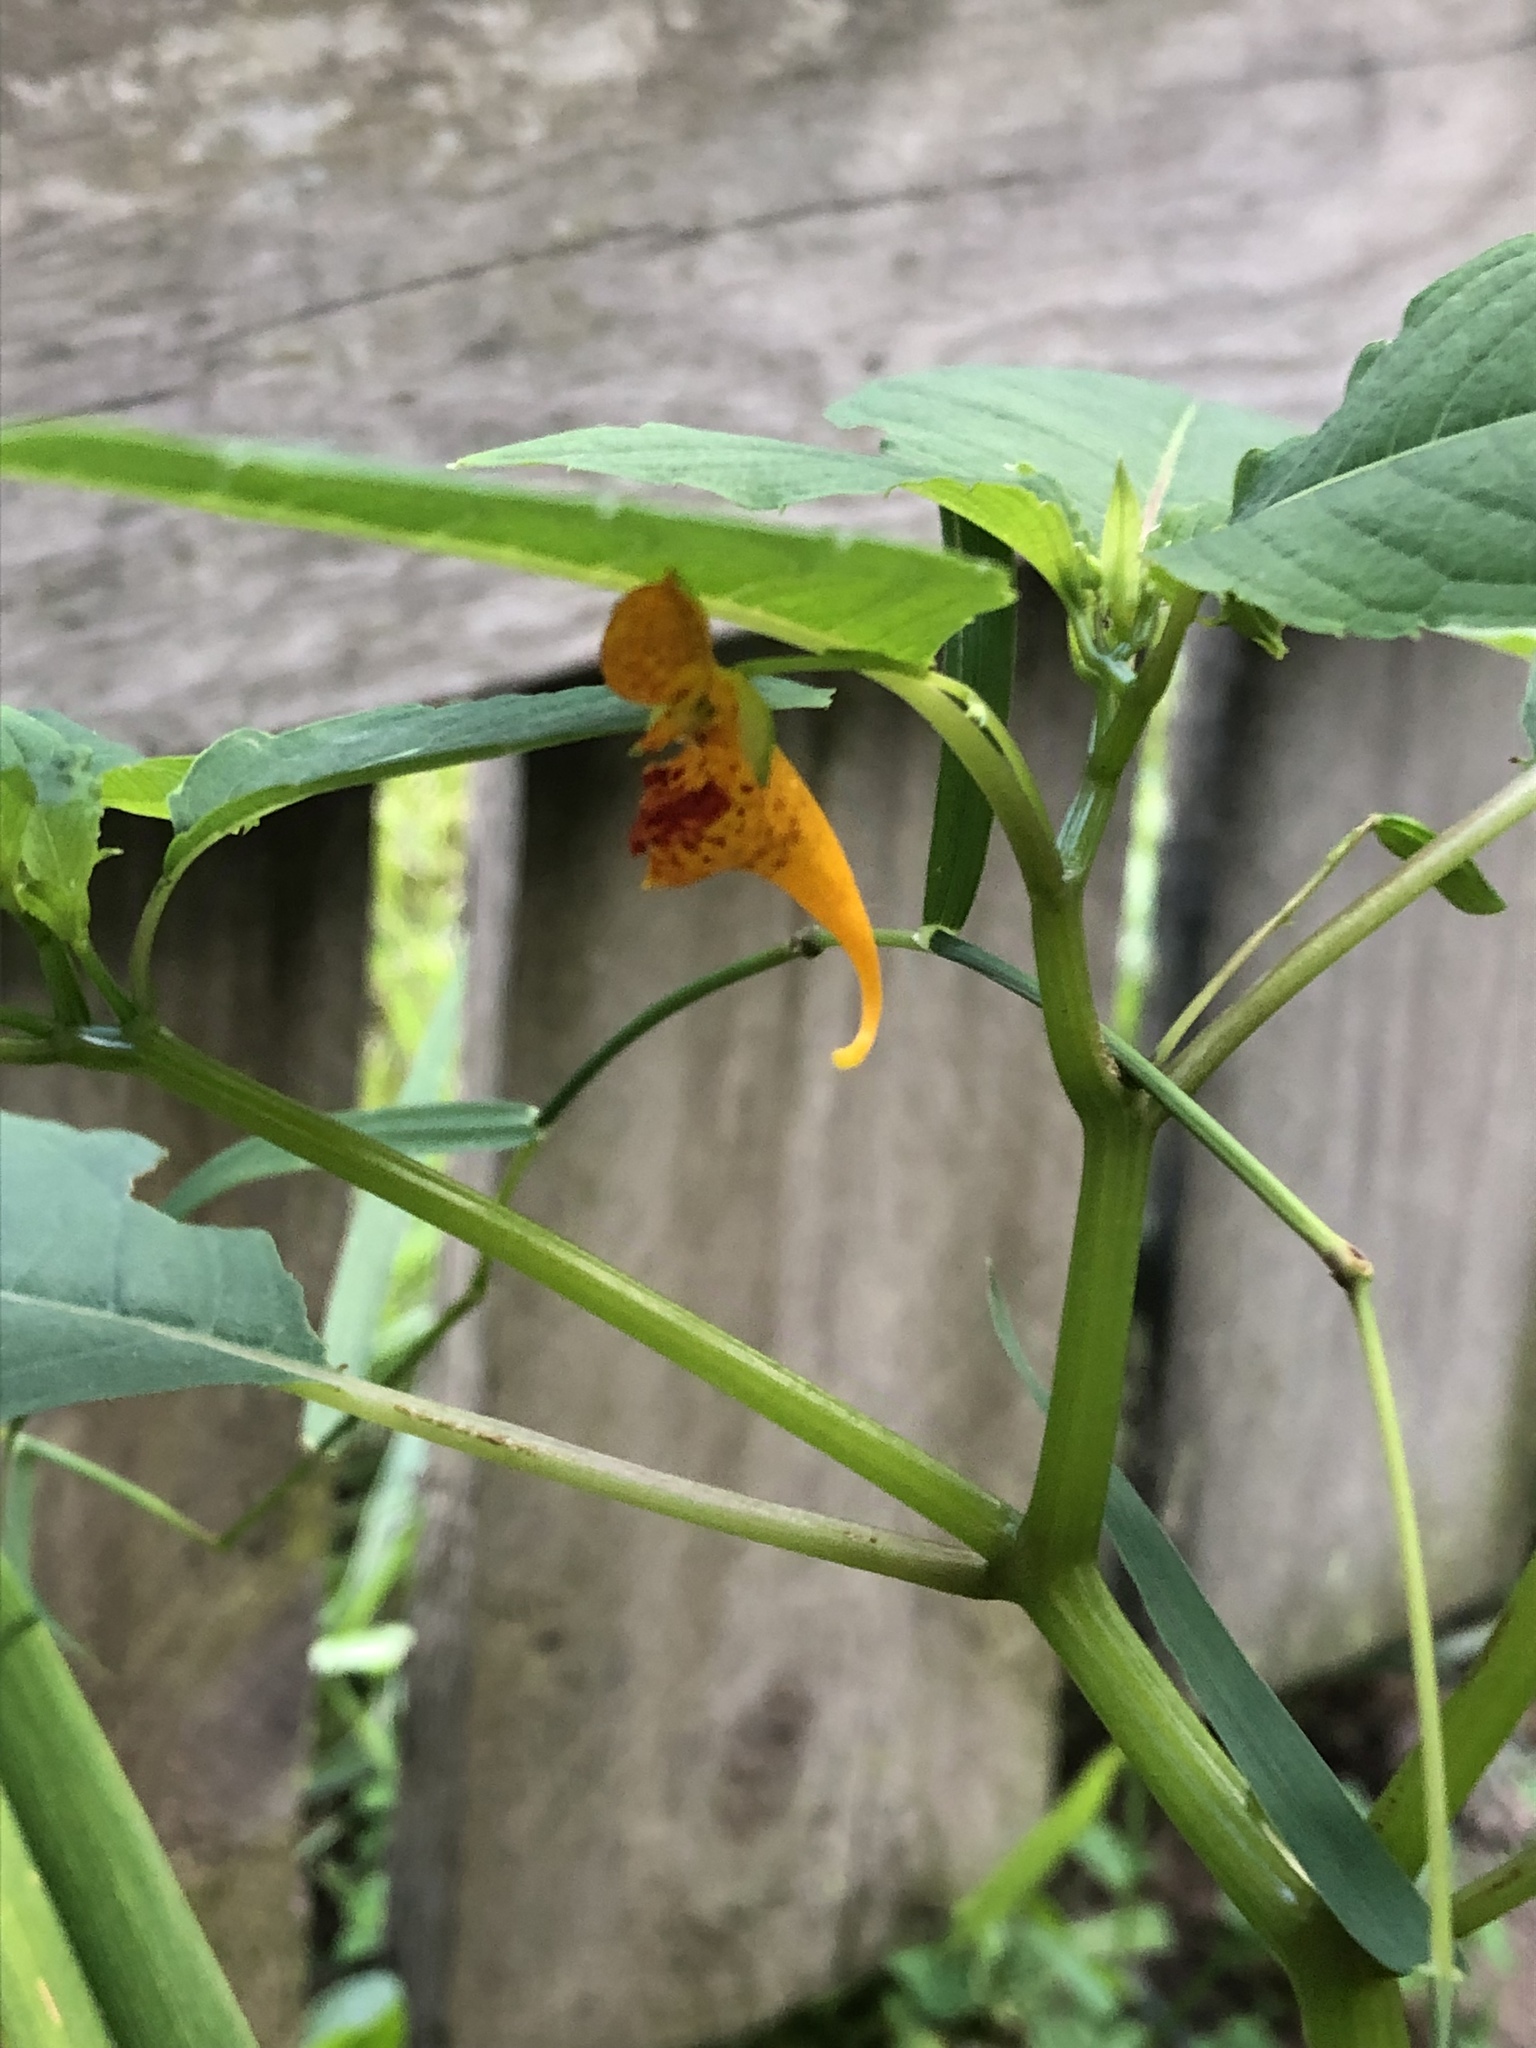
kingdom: Plantae
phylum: Tracheophyta
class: Magnoliopsida
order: Ericales
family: Balsaminaceae
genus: Impatiens
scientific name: Impatiens capensis
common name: Orange balsam
